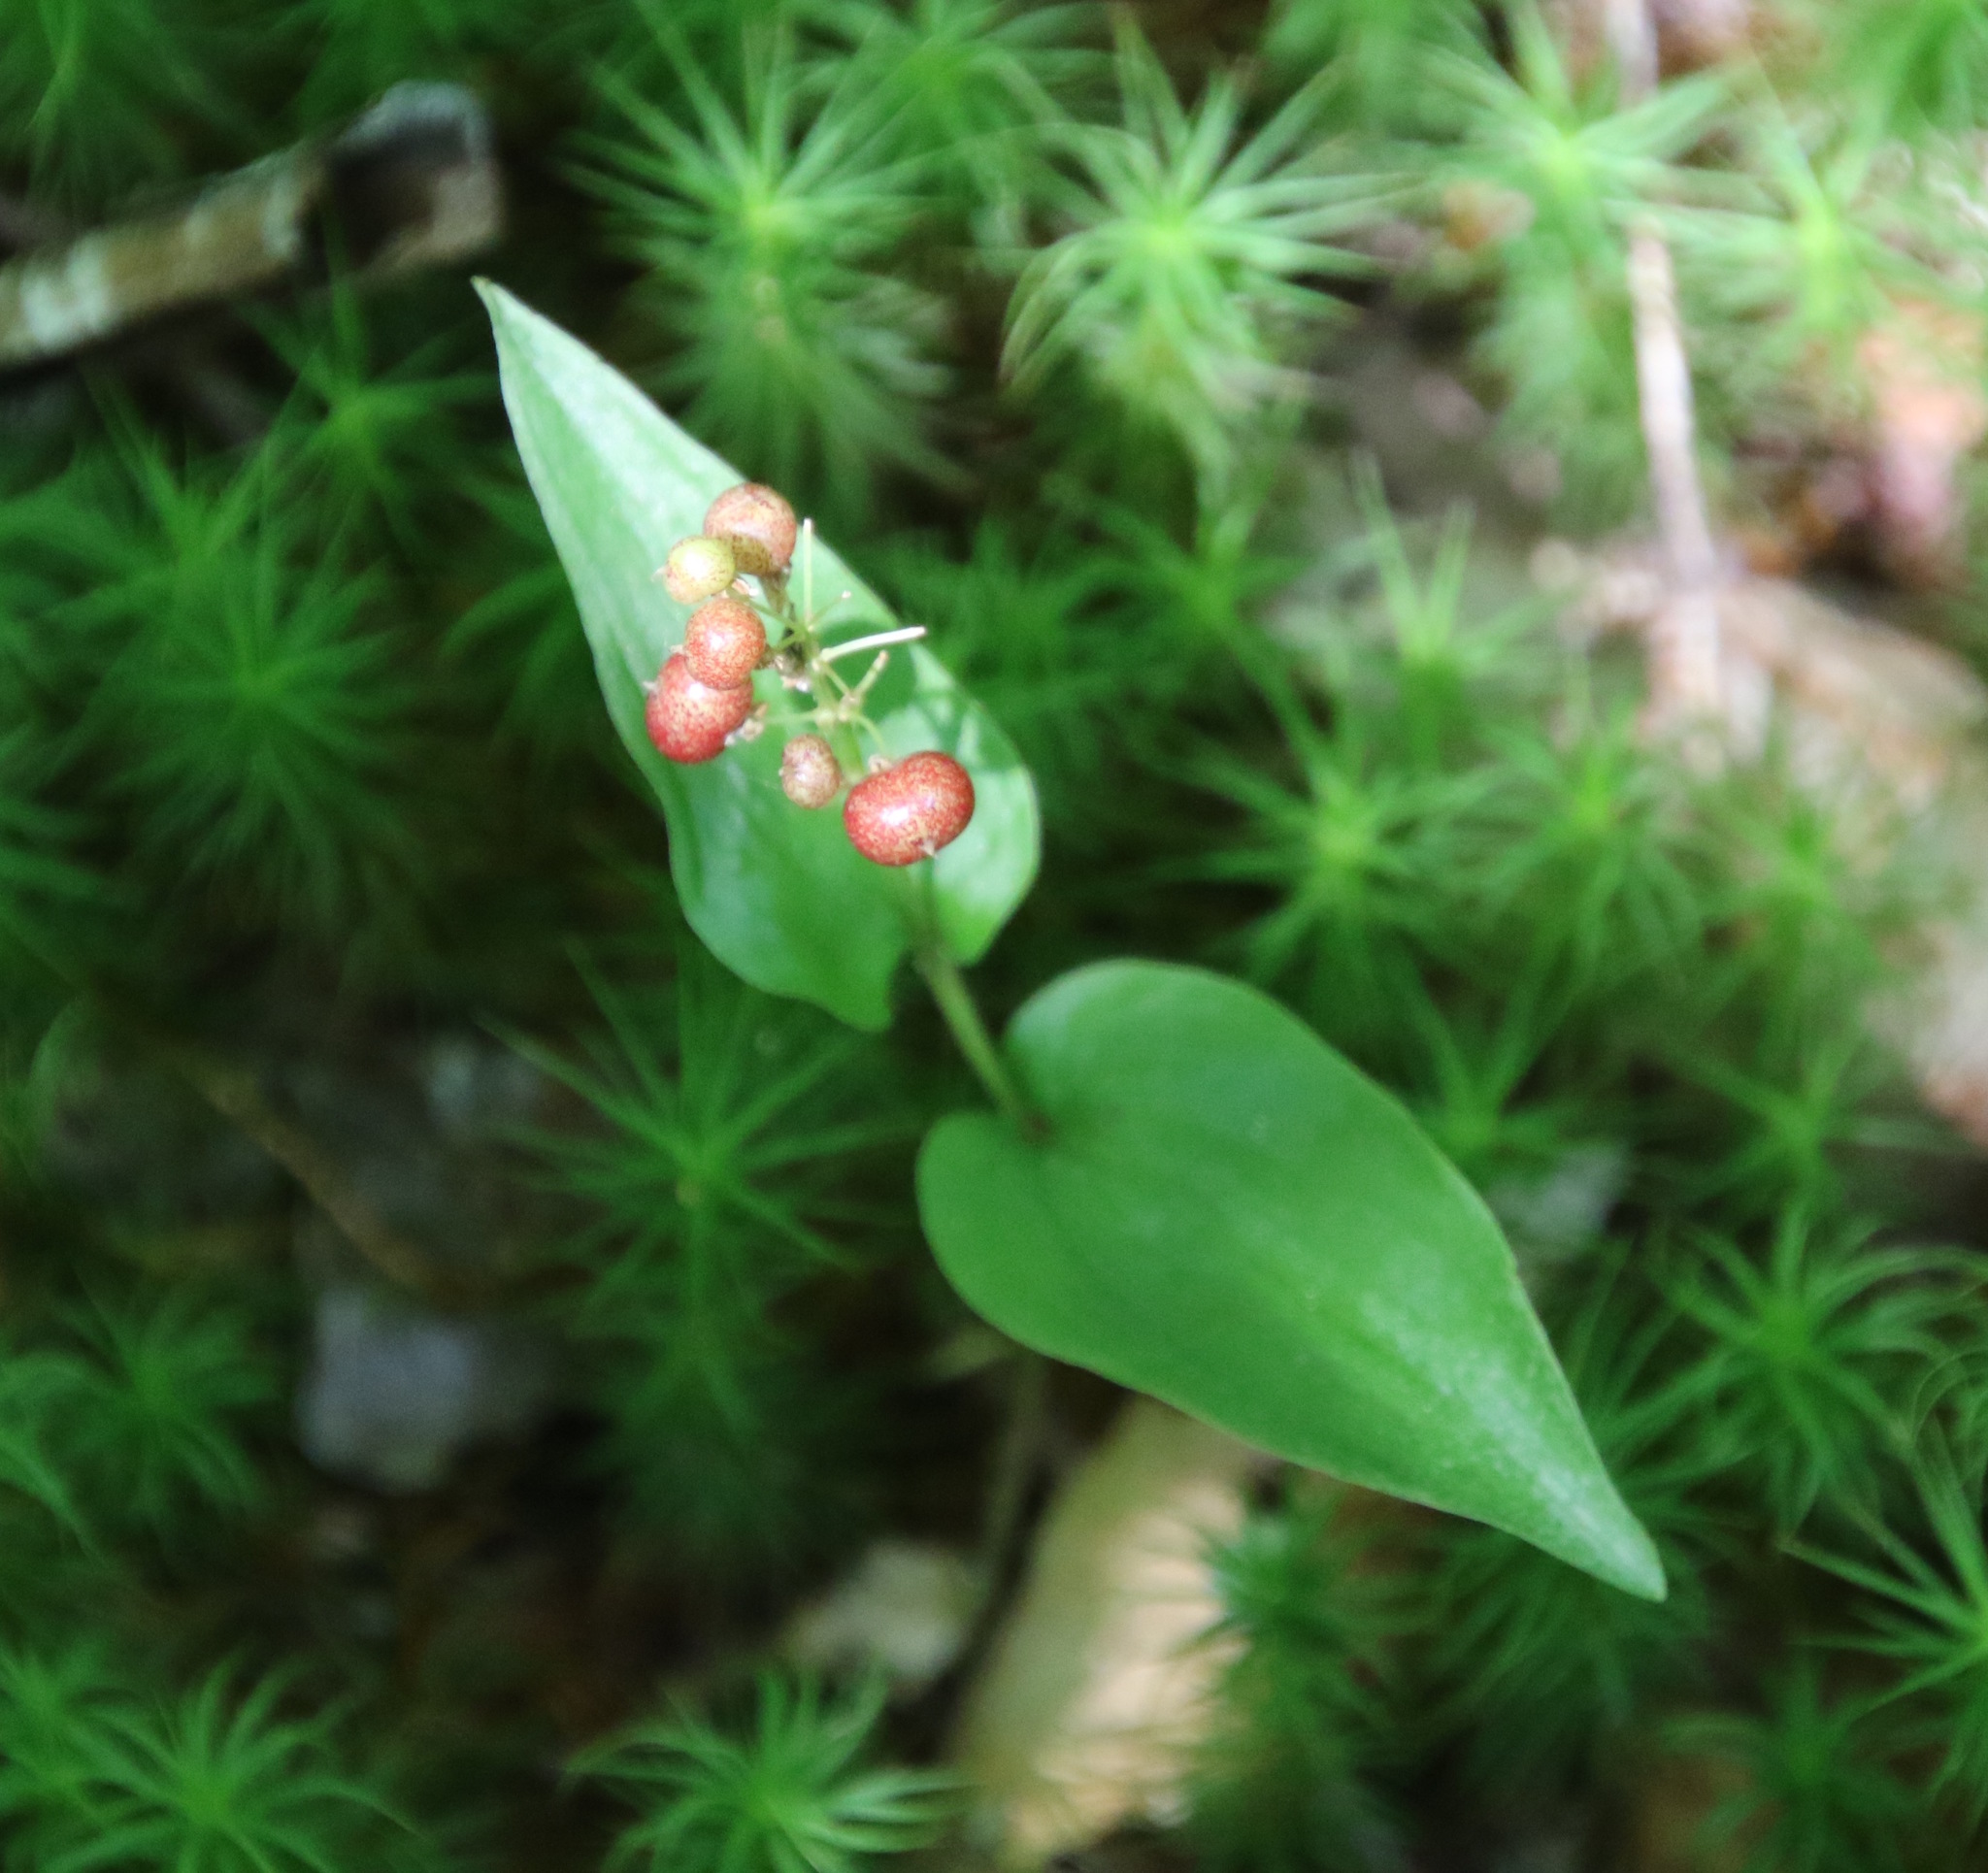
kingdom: Plantae
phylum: Tracheophyta
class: Liliopsida
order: Asparagales
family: Asparagaceae
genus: Maianthemum
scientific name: Maianthemum canadense
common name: False lily-of-the-valley
